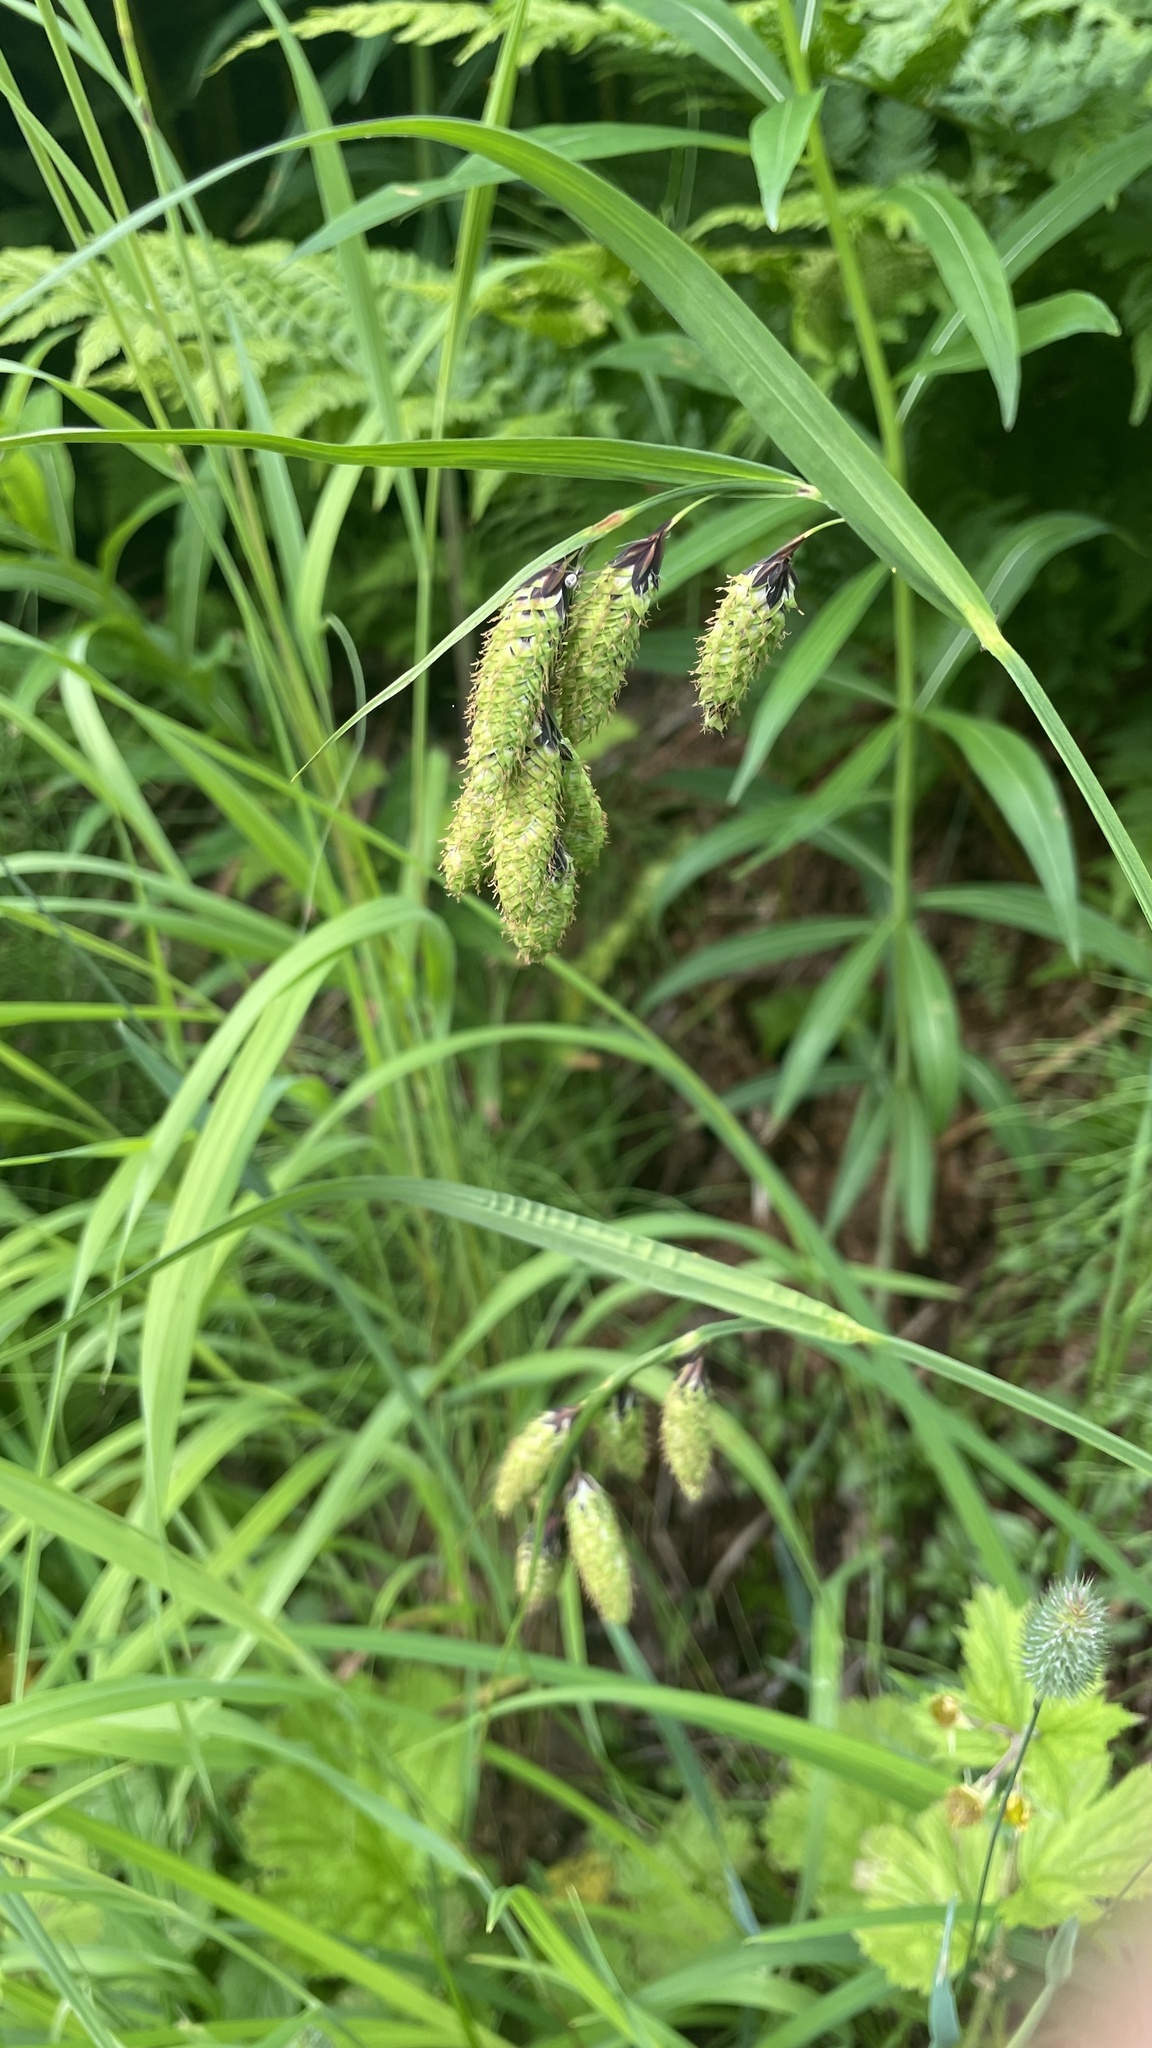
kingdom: Plantae
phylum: Tracheophyta
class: Liliopsida
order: Poales
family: Cyperaceae
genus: Carex
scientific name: Carex mertensii
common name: Mertens' sedge
